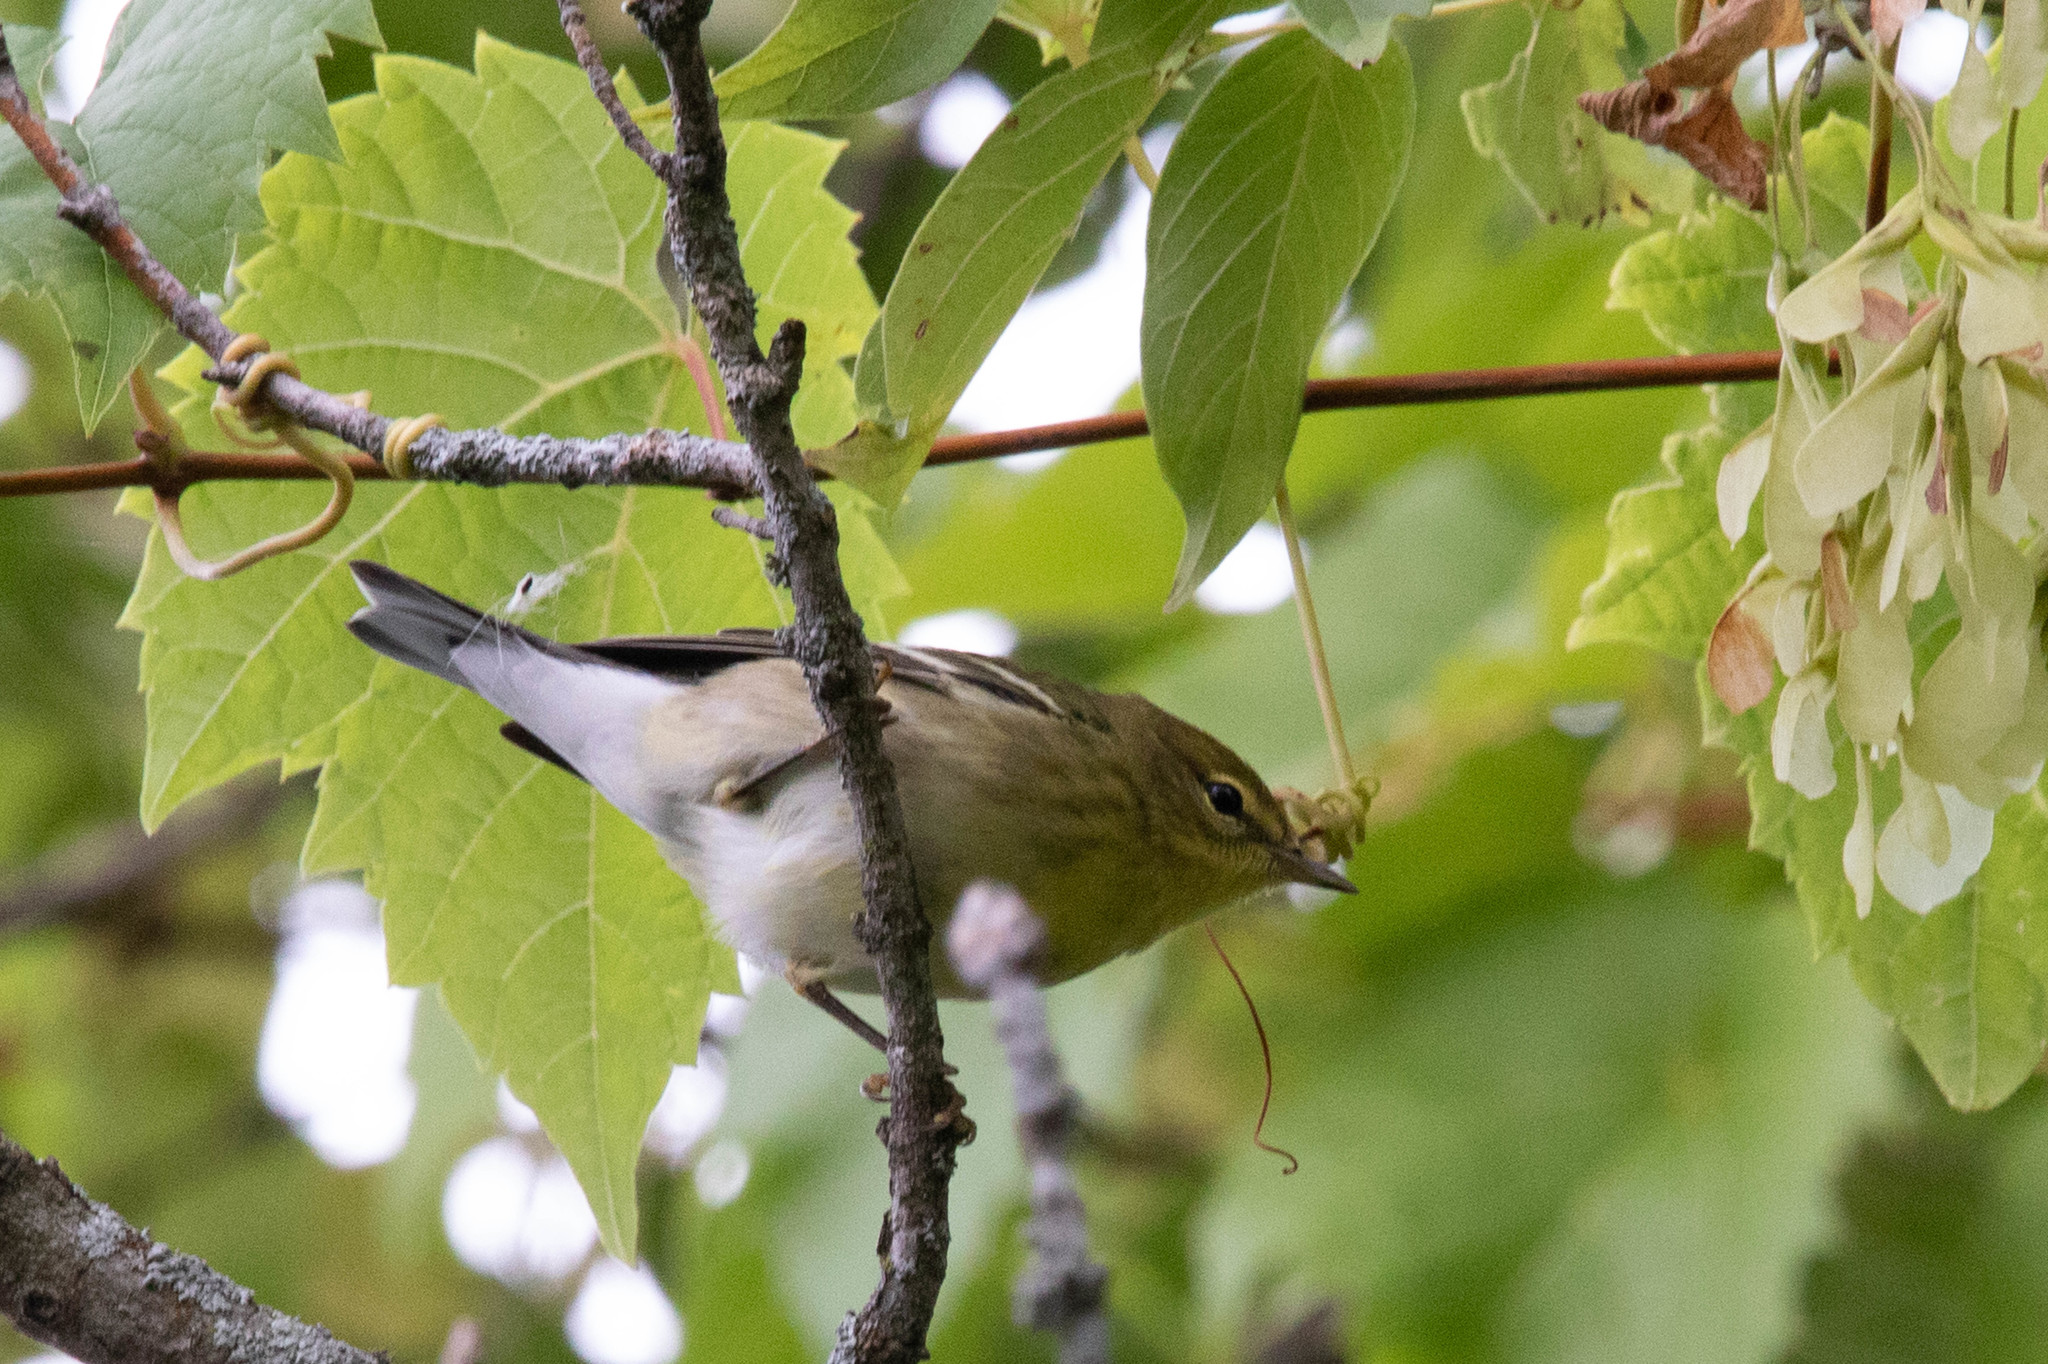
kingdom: Animalia
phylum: Chordata
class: Aves
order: Passeriformes
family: Parulidae
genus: Setophaga
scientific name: Setophaga striata
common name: Blackpoll warbler
